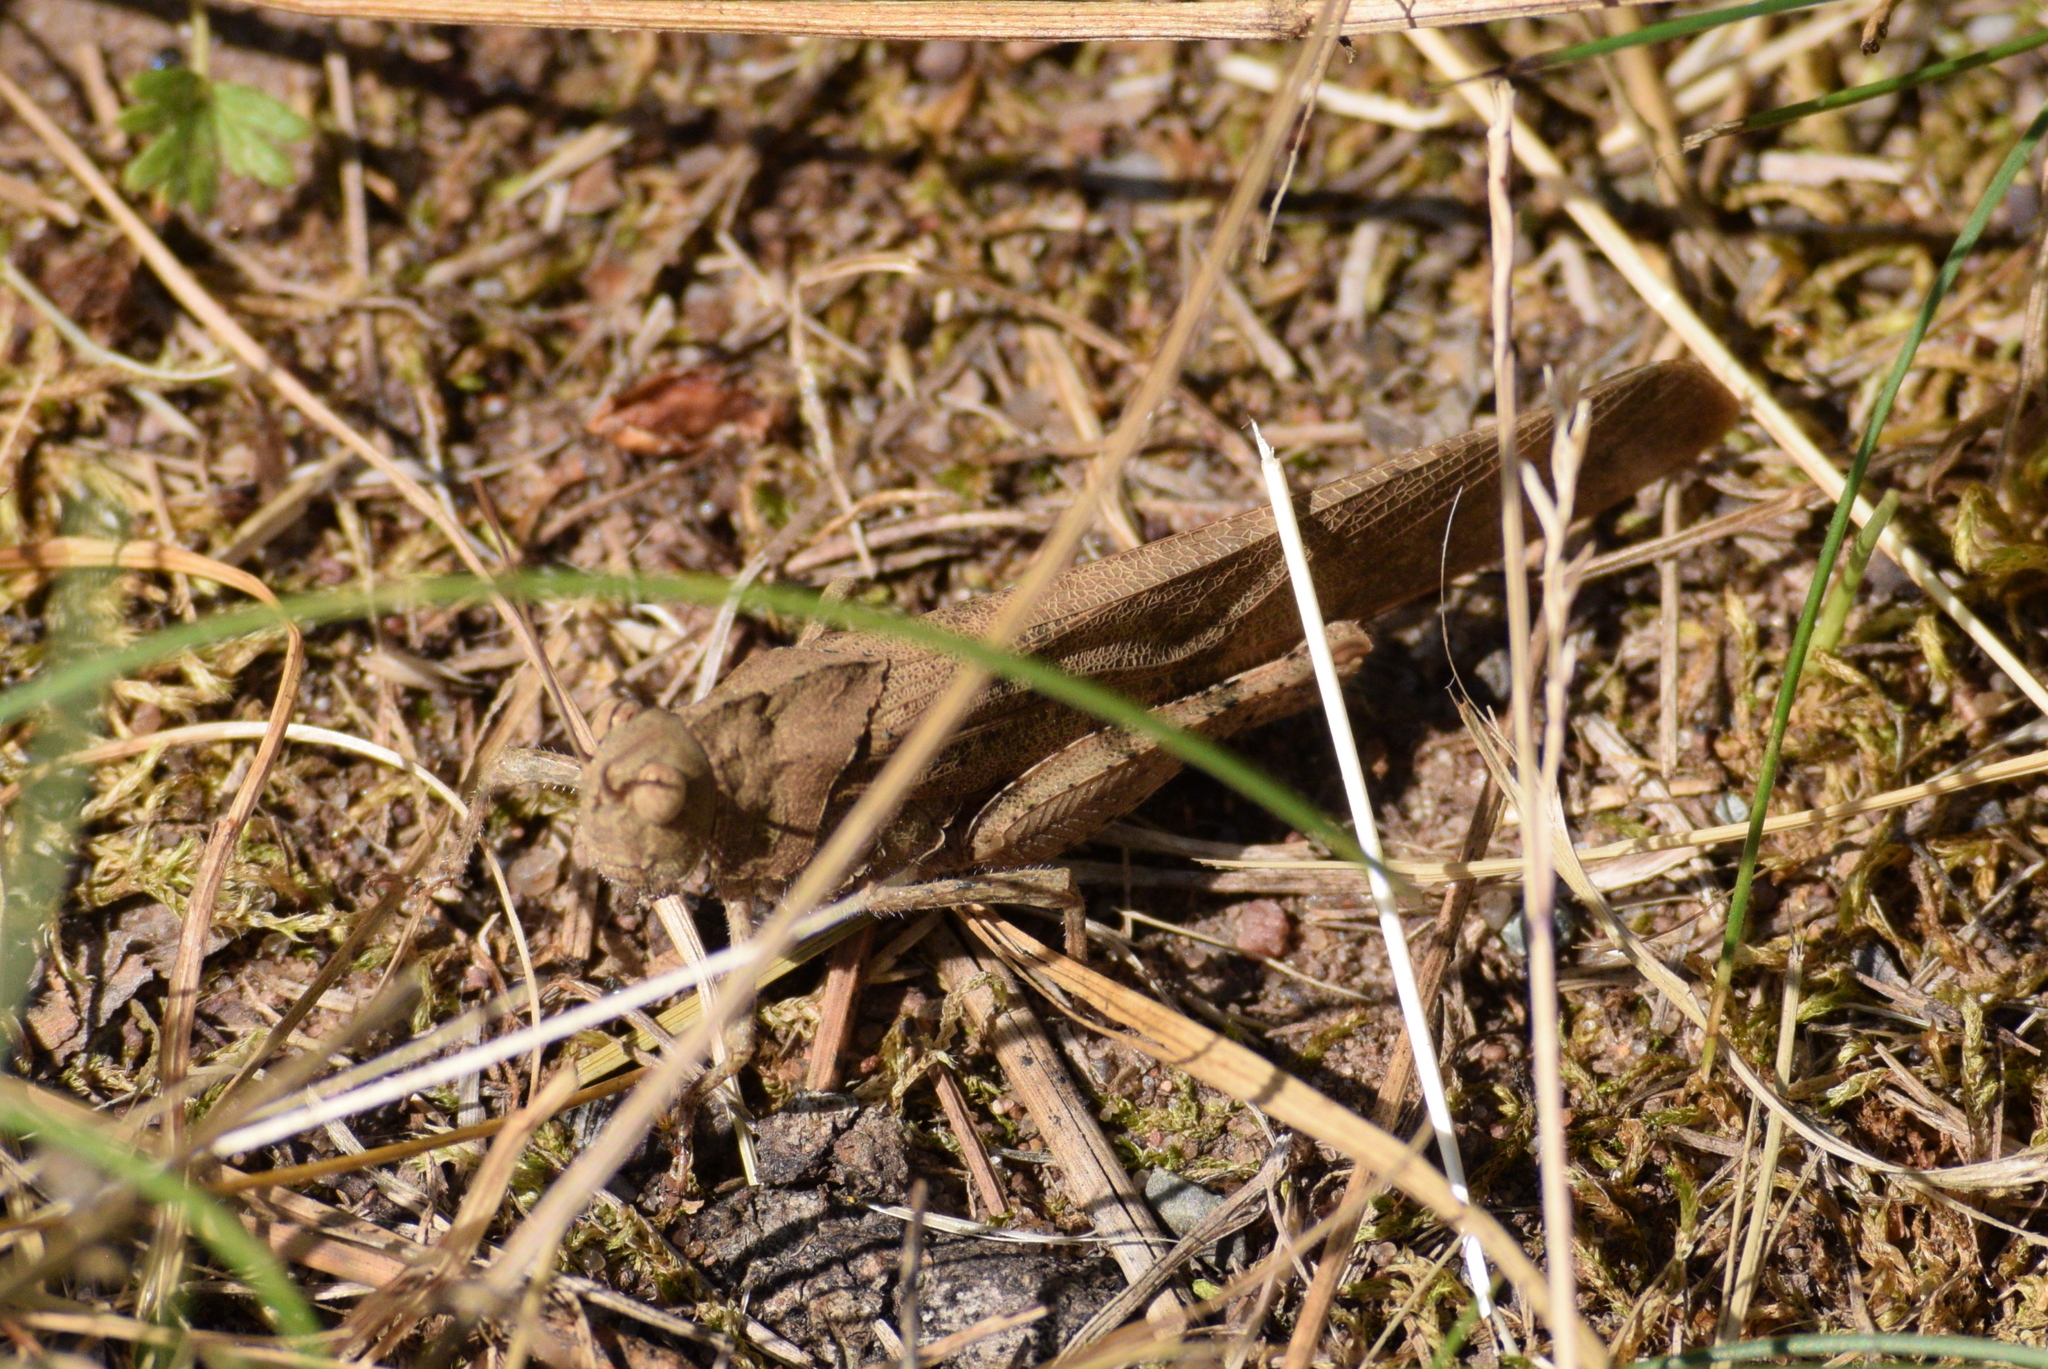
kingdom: Animalia
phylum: Arthropoda
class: Insecta
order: Orthoptera
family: Acrididae
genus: Dissosteira
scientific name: Dissosteira carolina
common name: Carolina grasshopper
